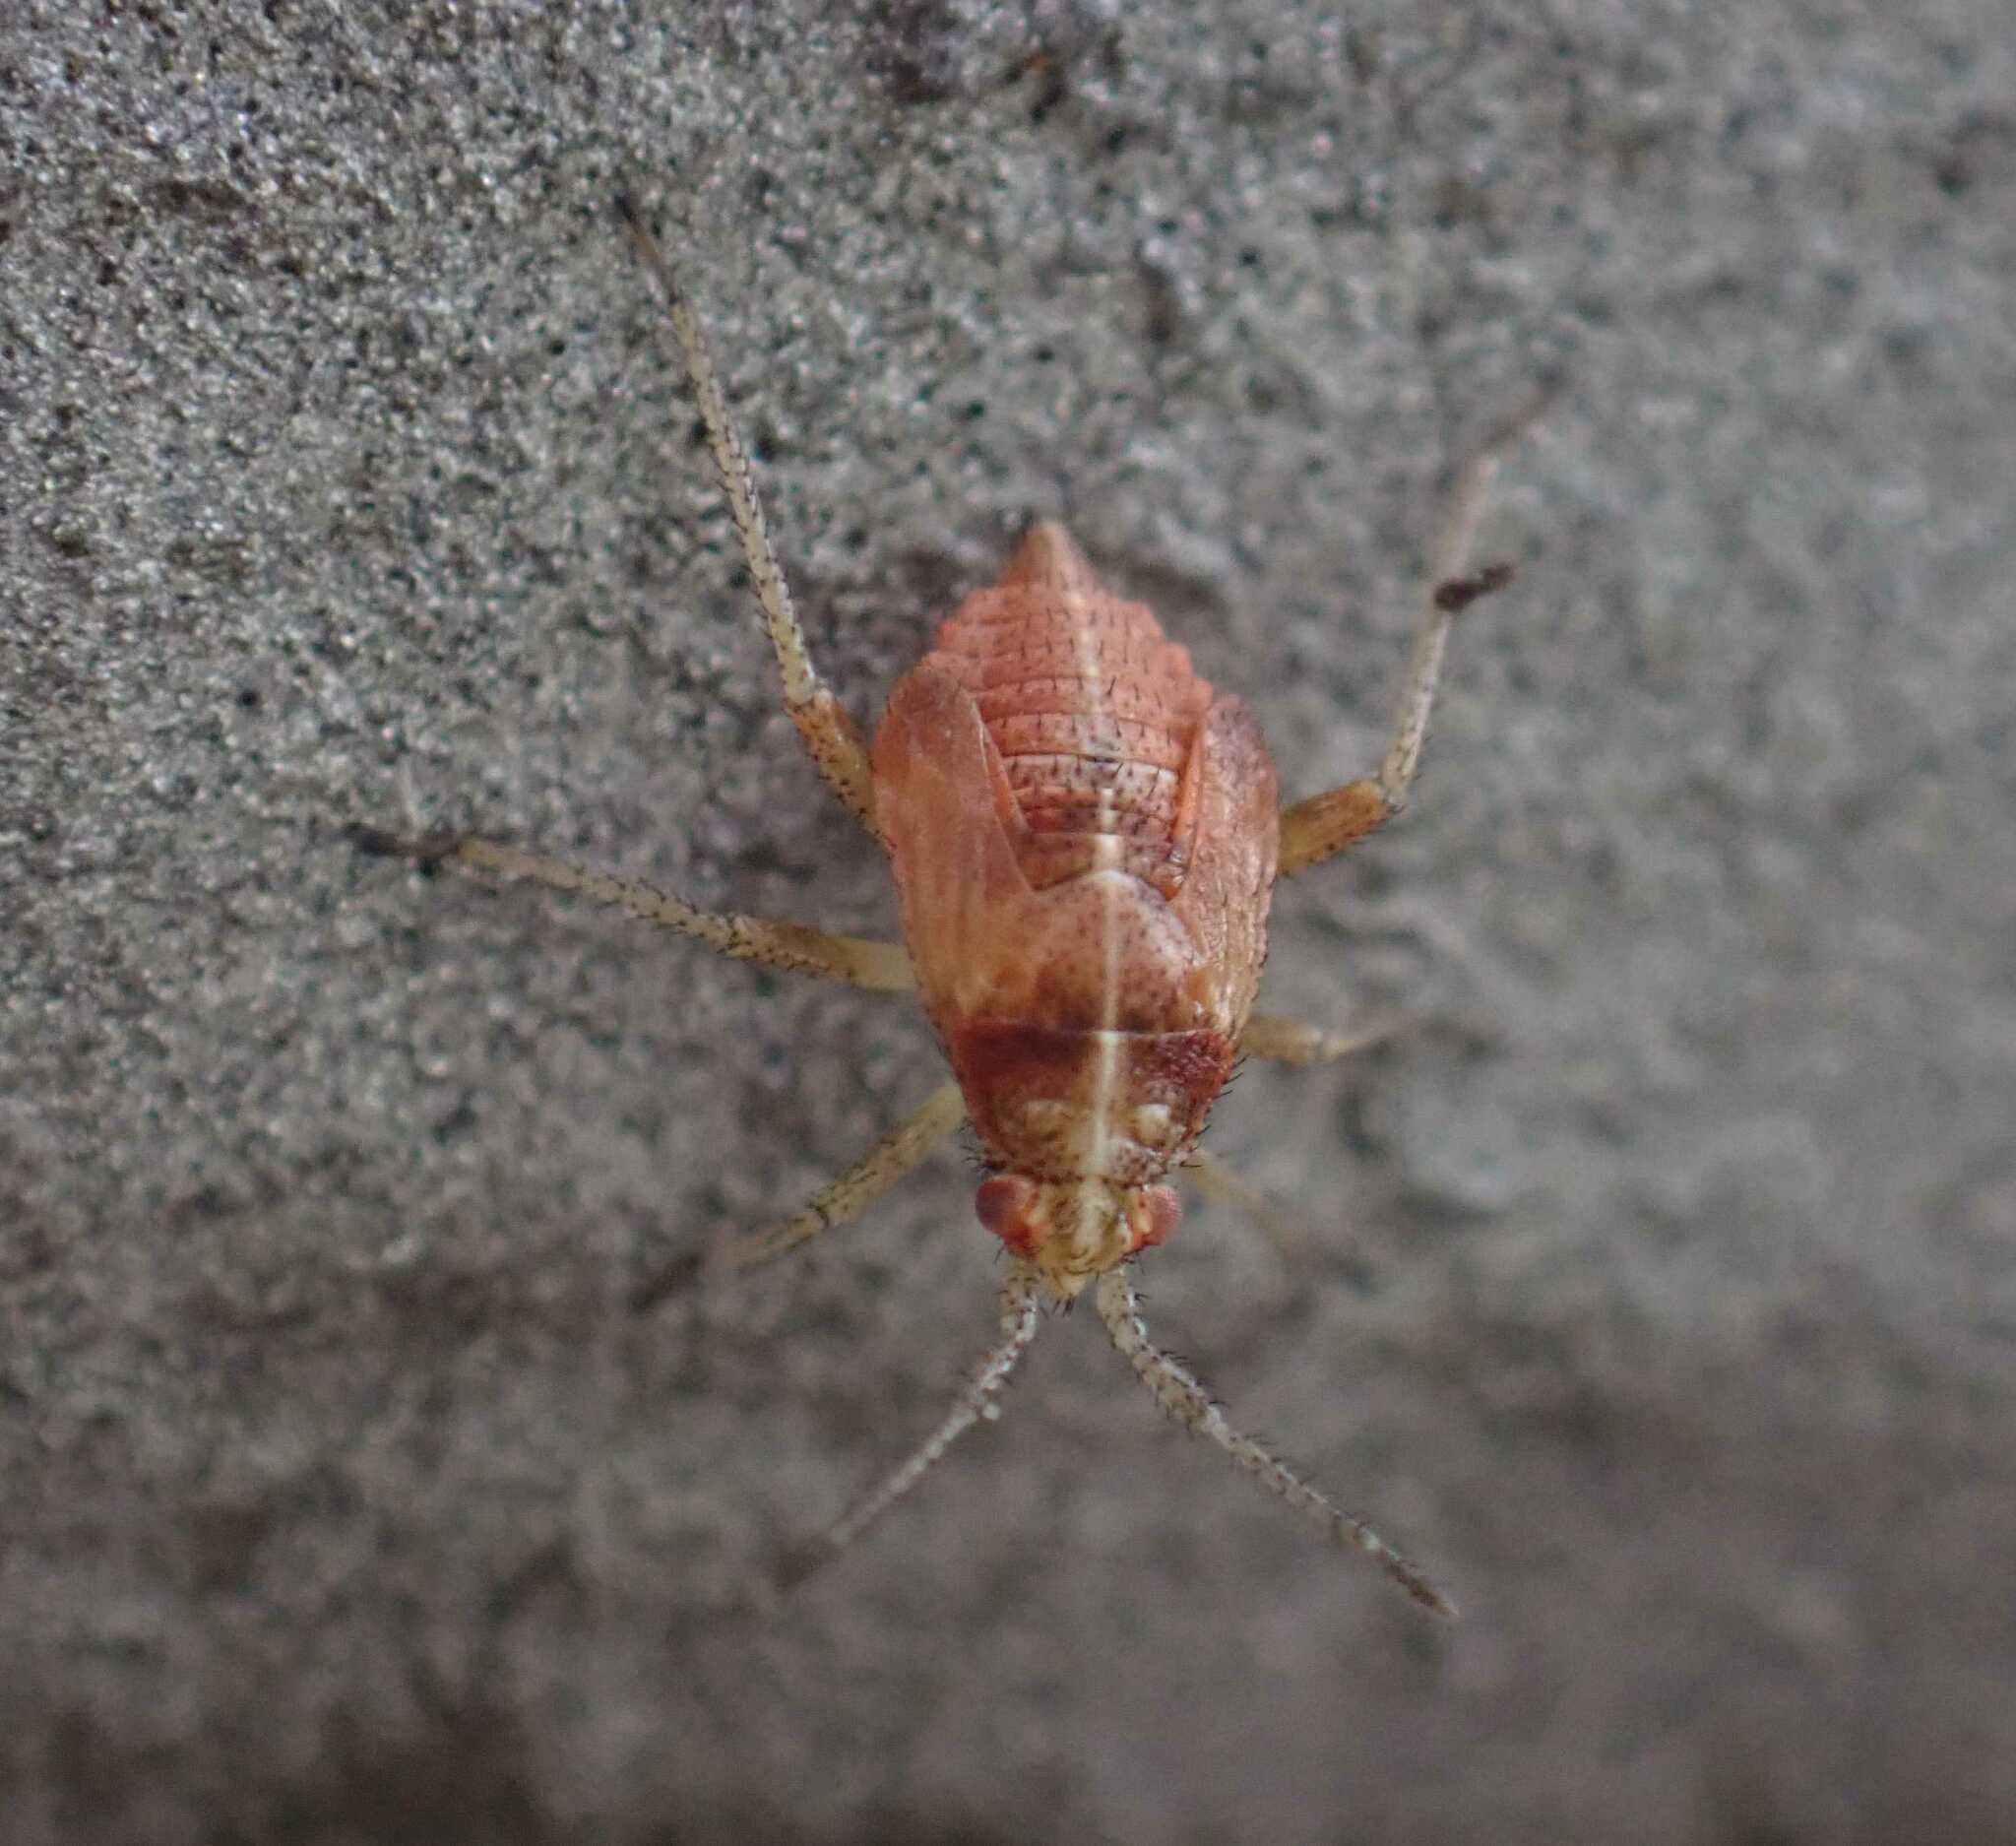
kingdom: Animalia
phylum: Arthropoda
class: Insecta
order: Hemiptera
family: Miridae
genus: Harpocera
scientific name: Harpocera thoracica
